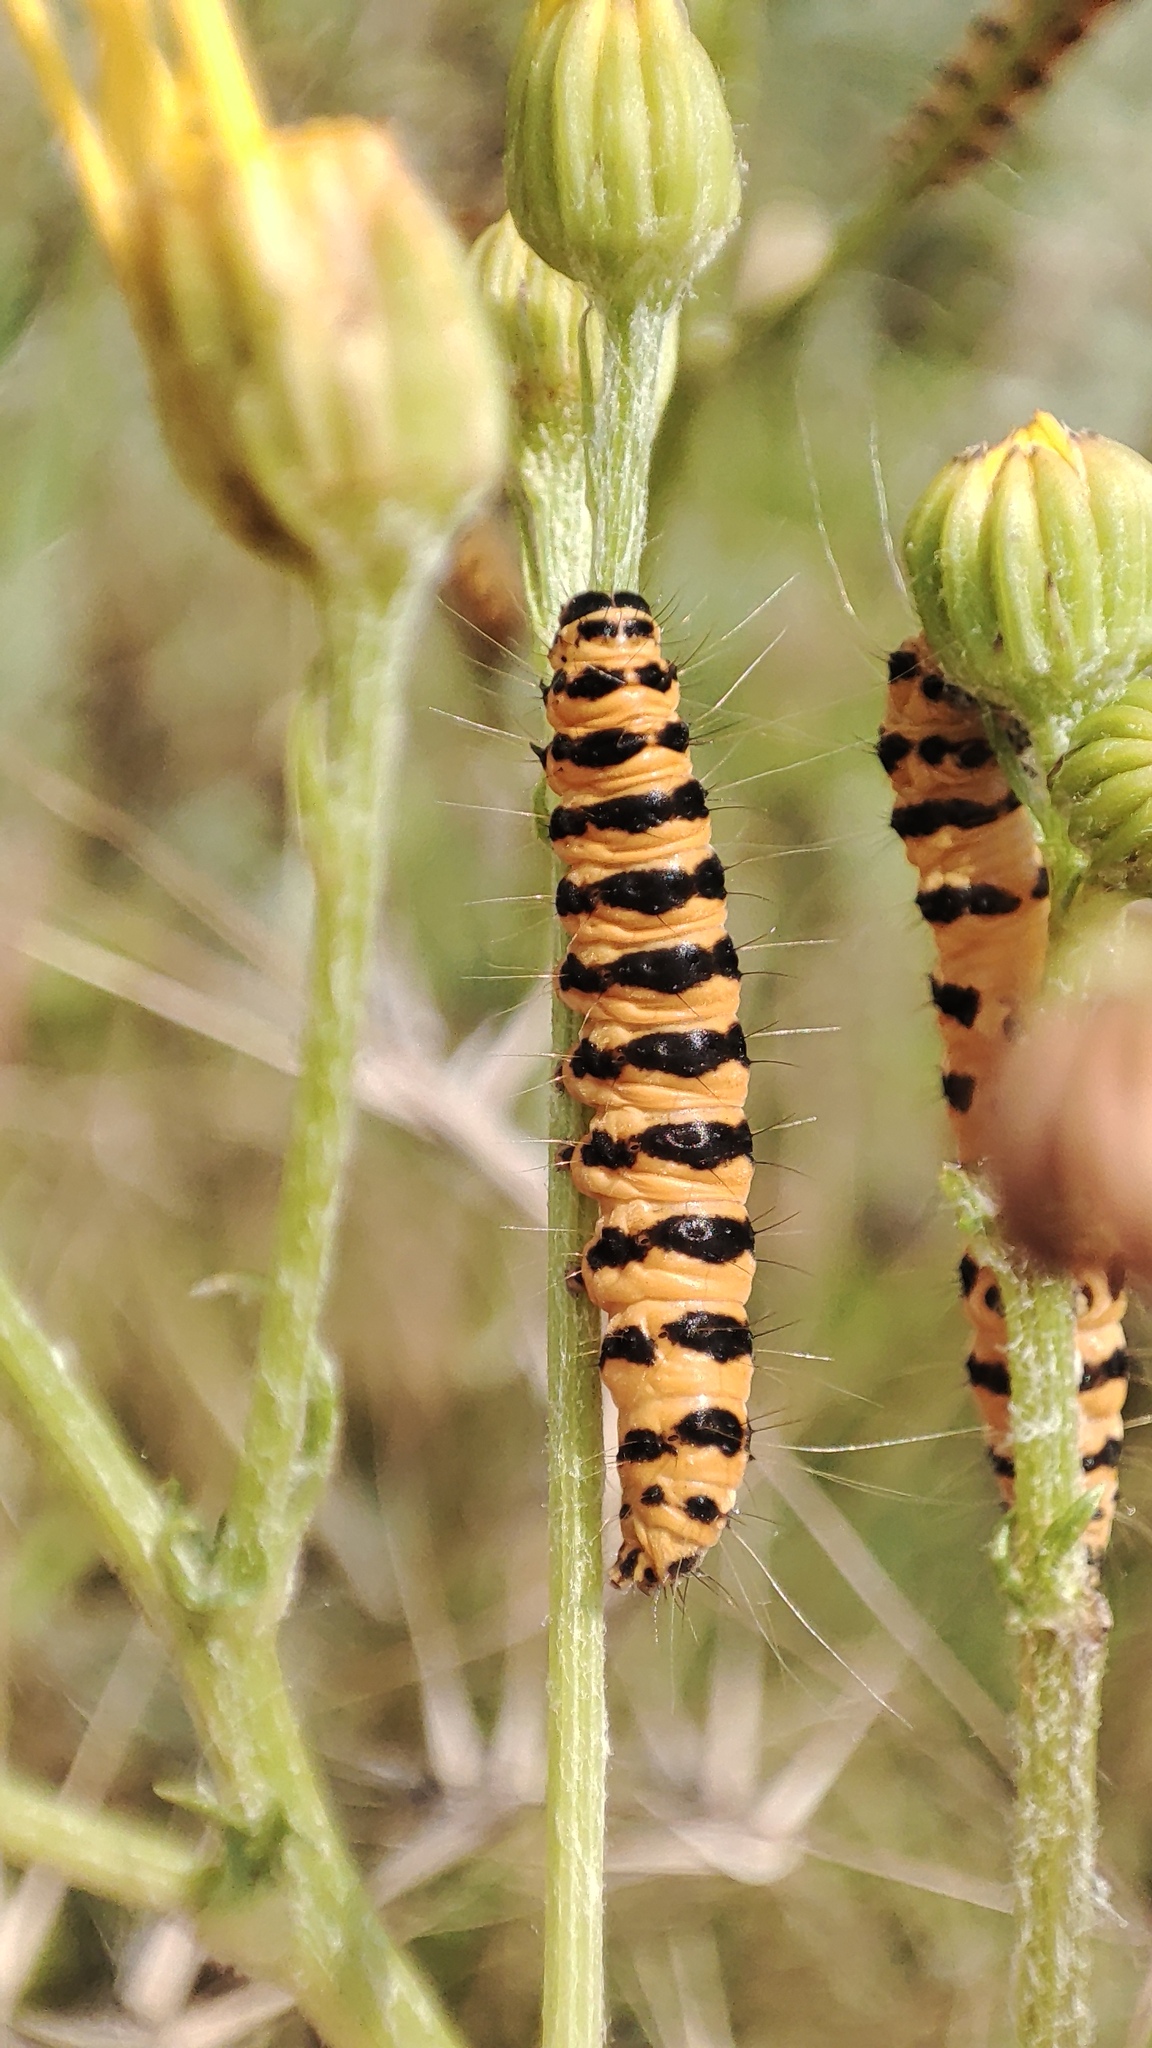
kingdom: Animalia
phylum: Arthropoda
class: Insecta
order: Lepidoptera
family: Erebidae
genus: Tyria
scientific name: Tyria jacobaeae
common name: Cinnabar
